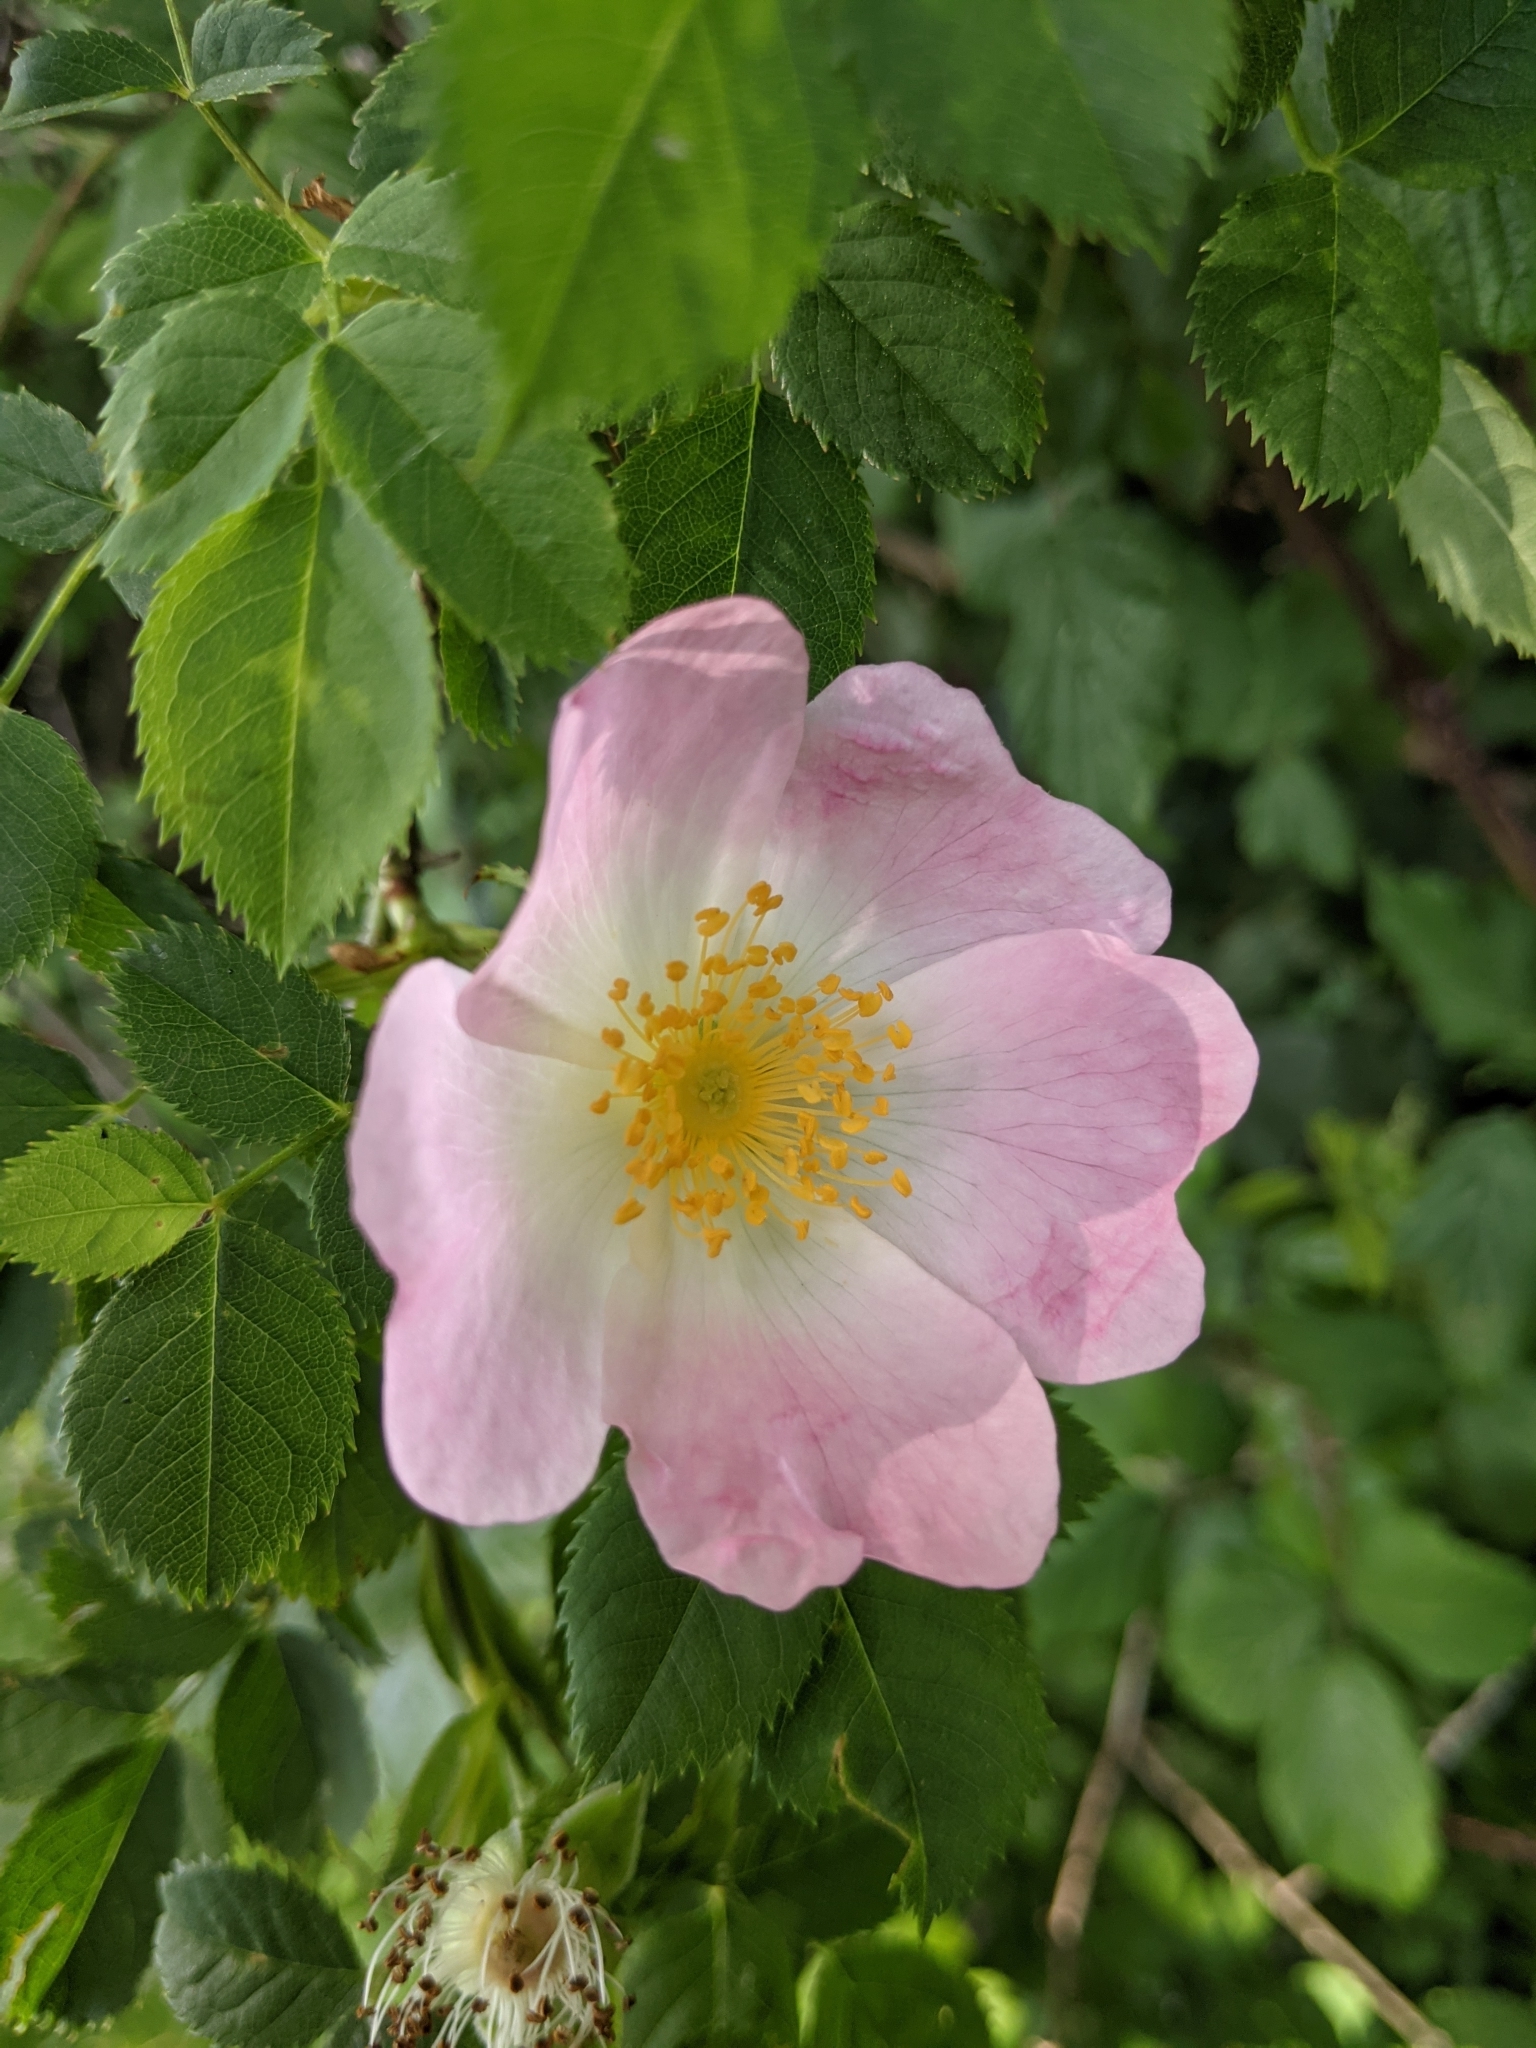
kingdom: Plantae
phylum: Tracheophyta
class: Magnoliopsida
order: Rosales
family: Rosaceae
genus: Rosa
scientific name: Rosa canina
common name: Dog rose
